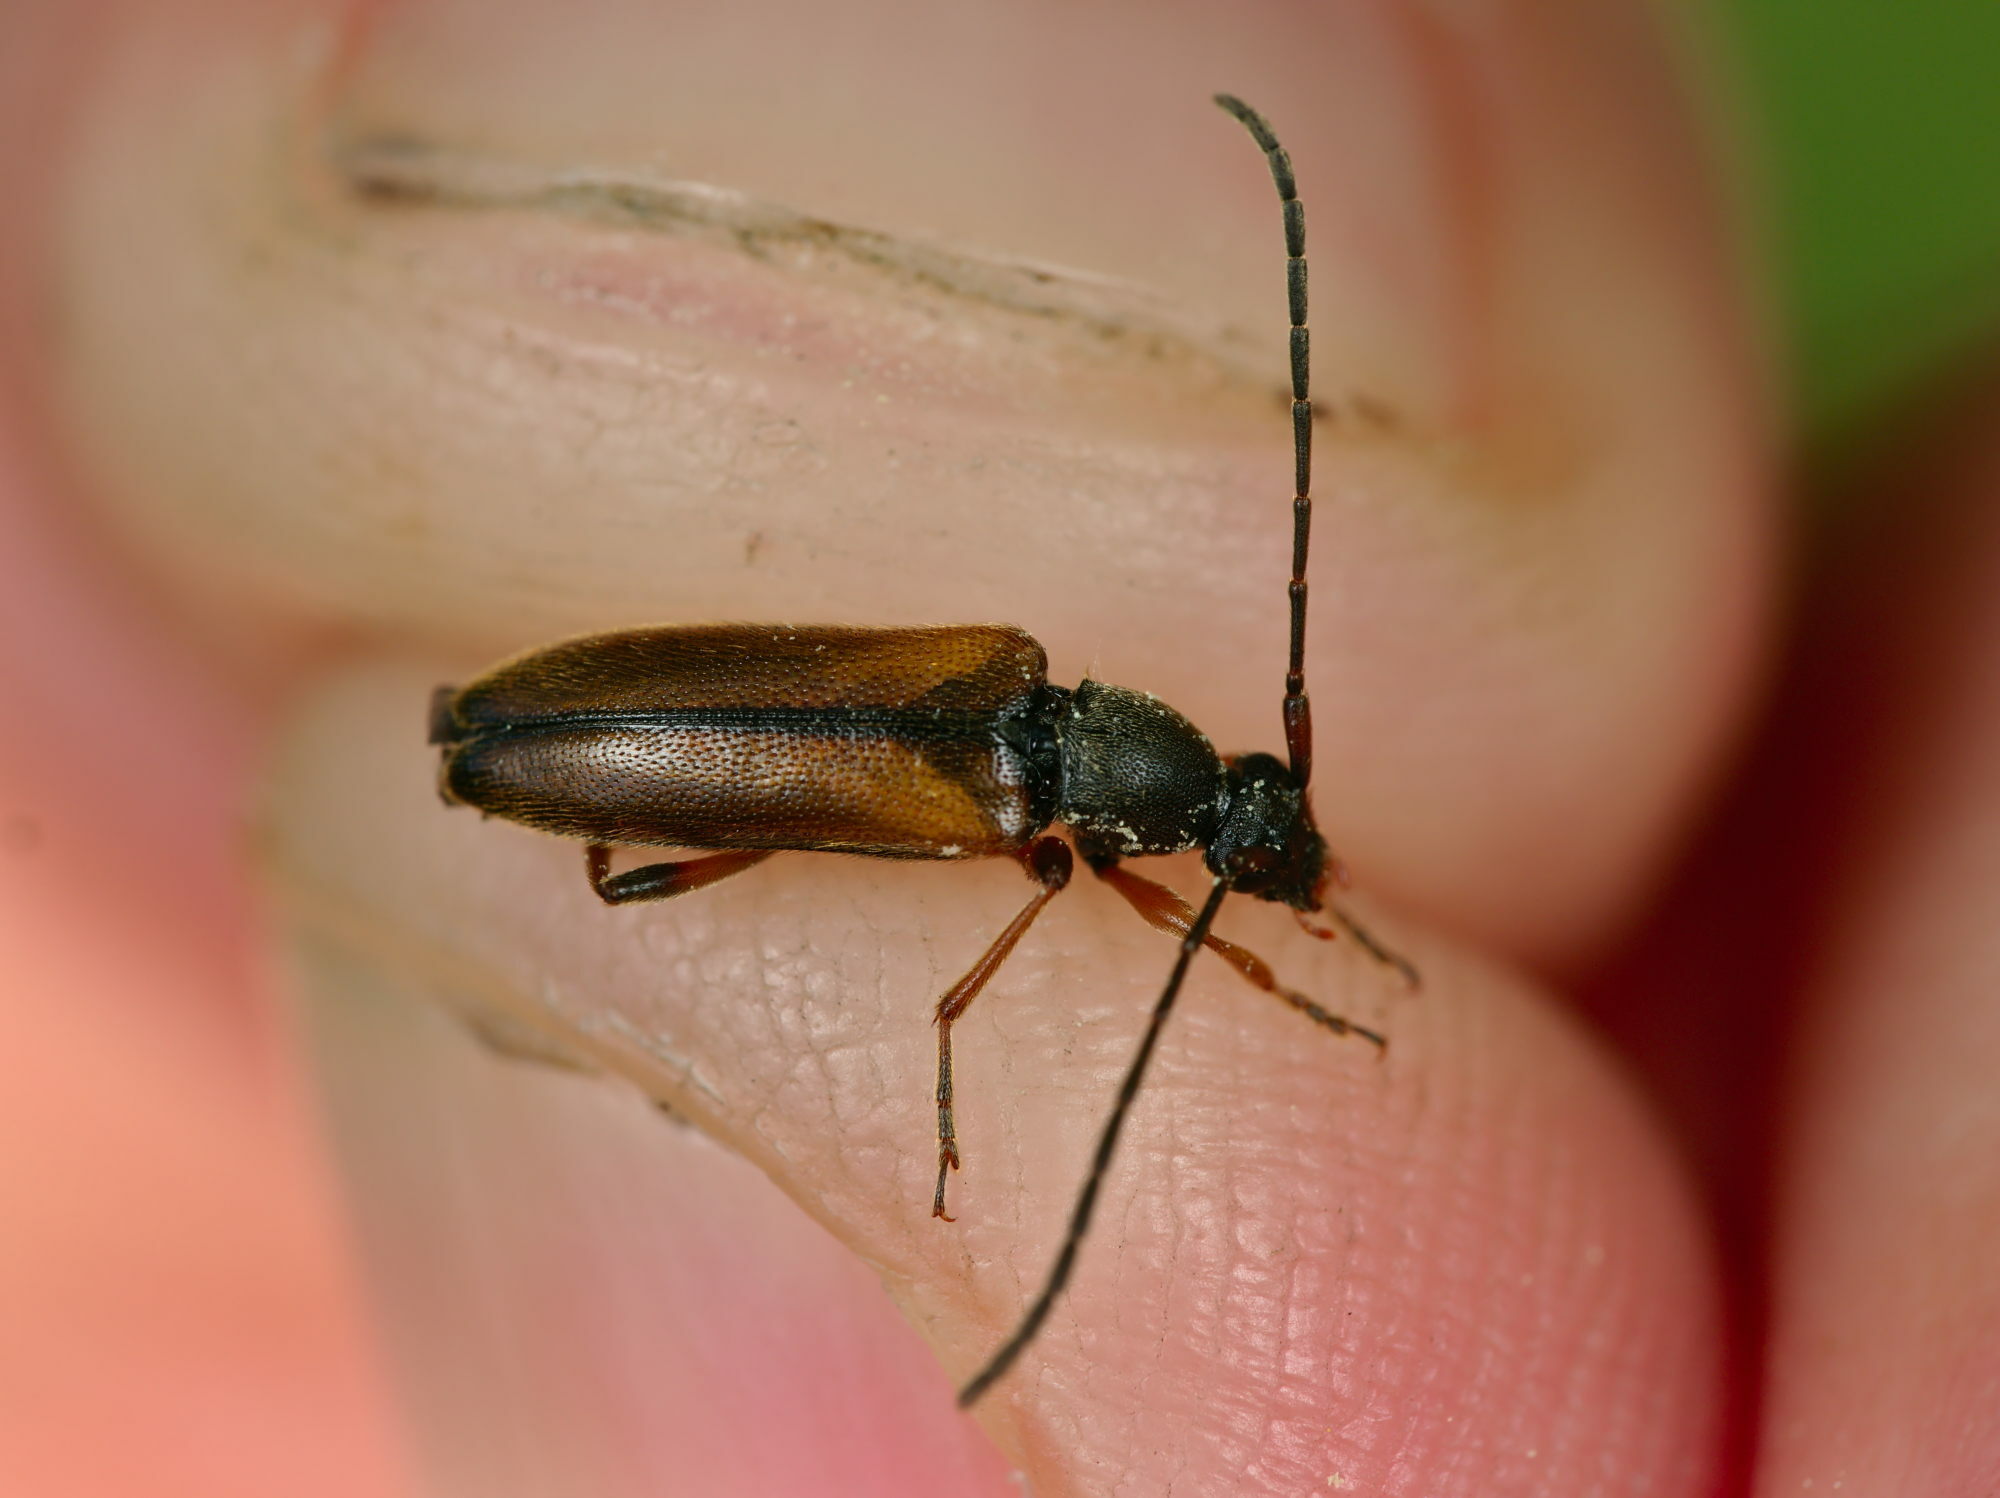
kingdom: Animalia
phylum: Arthropoda
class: Insecta
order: Coleoptera
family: Cerambycidae
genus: Alosterna
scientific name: Alosterna tabacicolor
